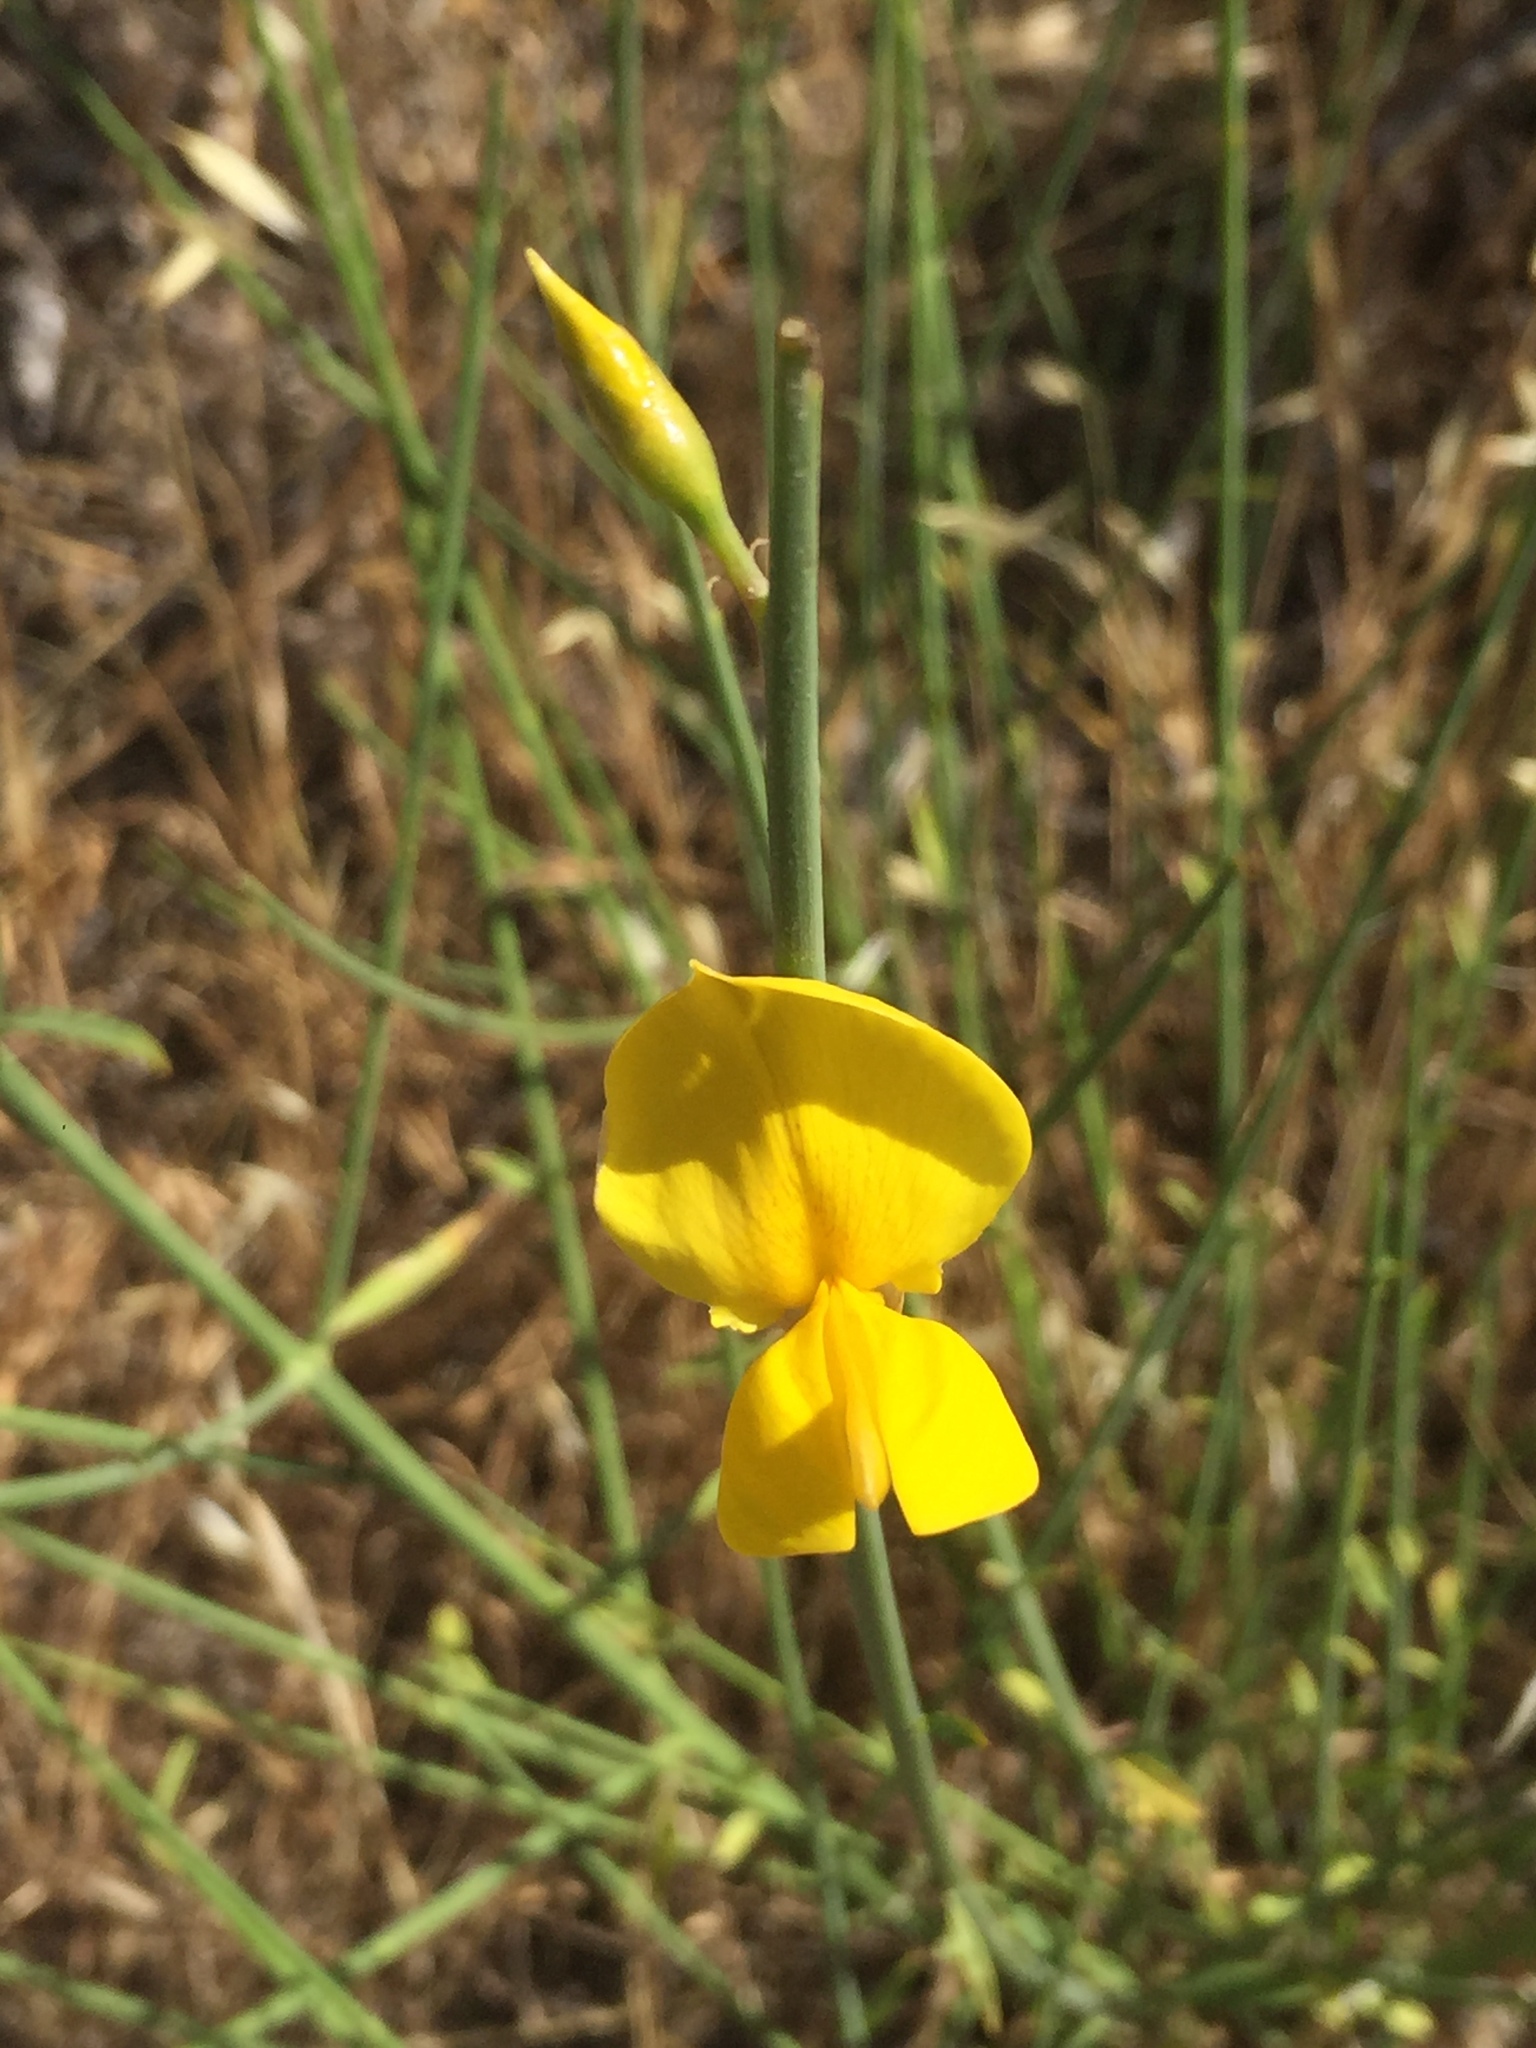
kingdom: Plantae
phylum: Tracheophyta
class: Magnoliopsida
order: Fabales
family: Fabaceae
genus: Spartium
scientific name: Spartium junceum
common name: Spanish broom
